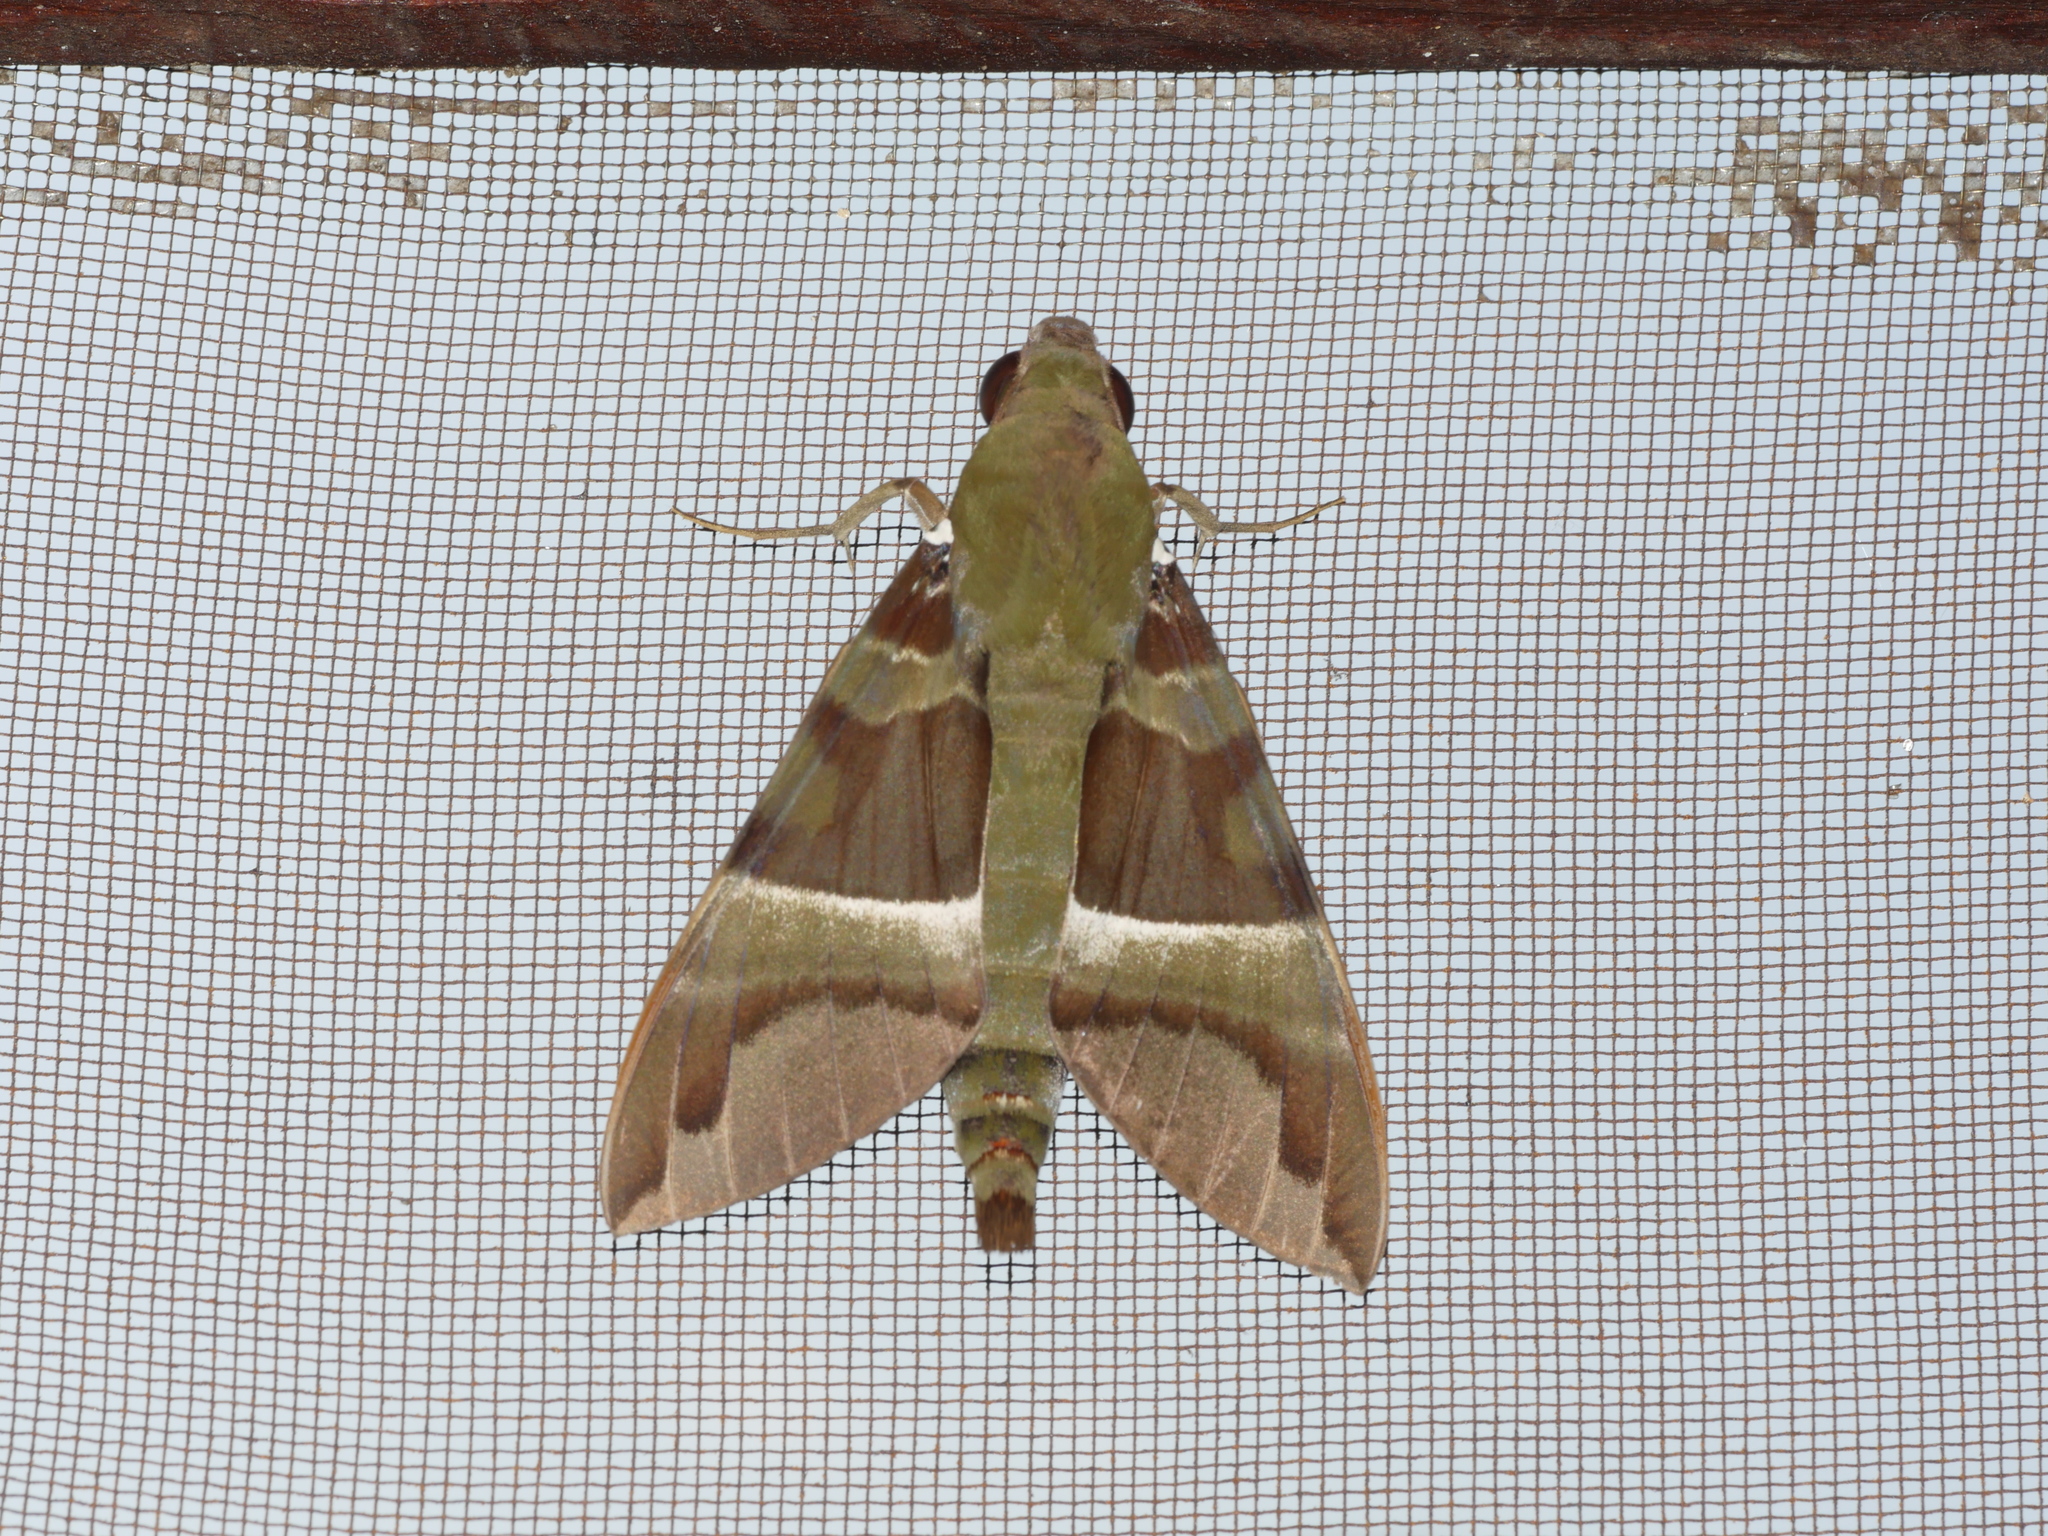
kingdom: Animalia
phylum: Arthropoda
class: Insecta
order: Lepidoptera
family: Sphingidae
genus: Nephele
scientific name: Nephele rosae
